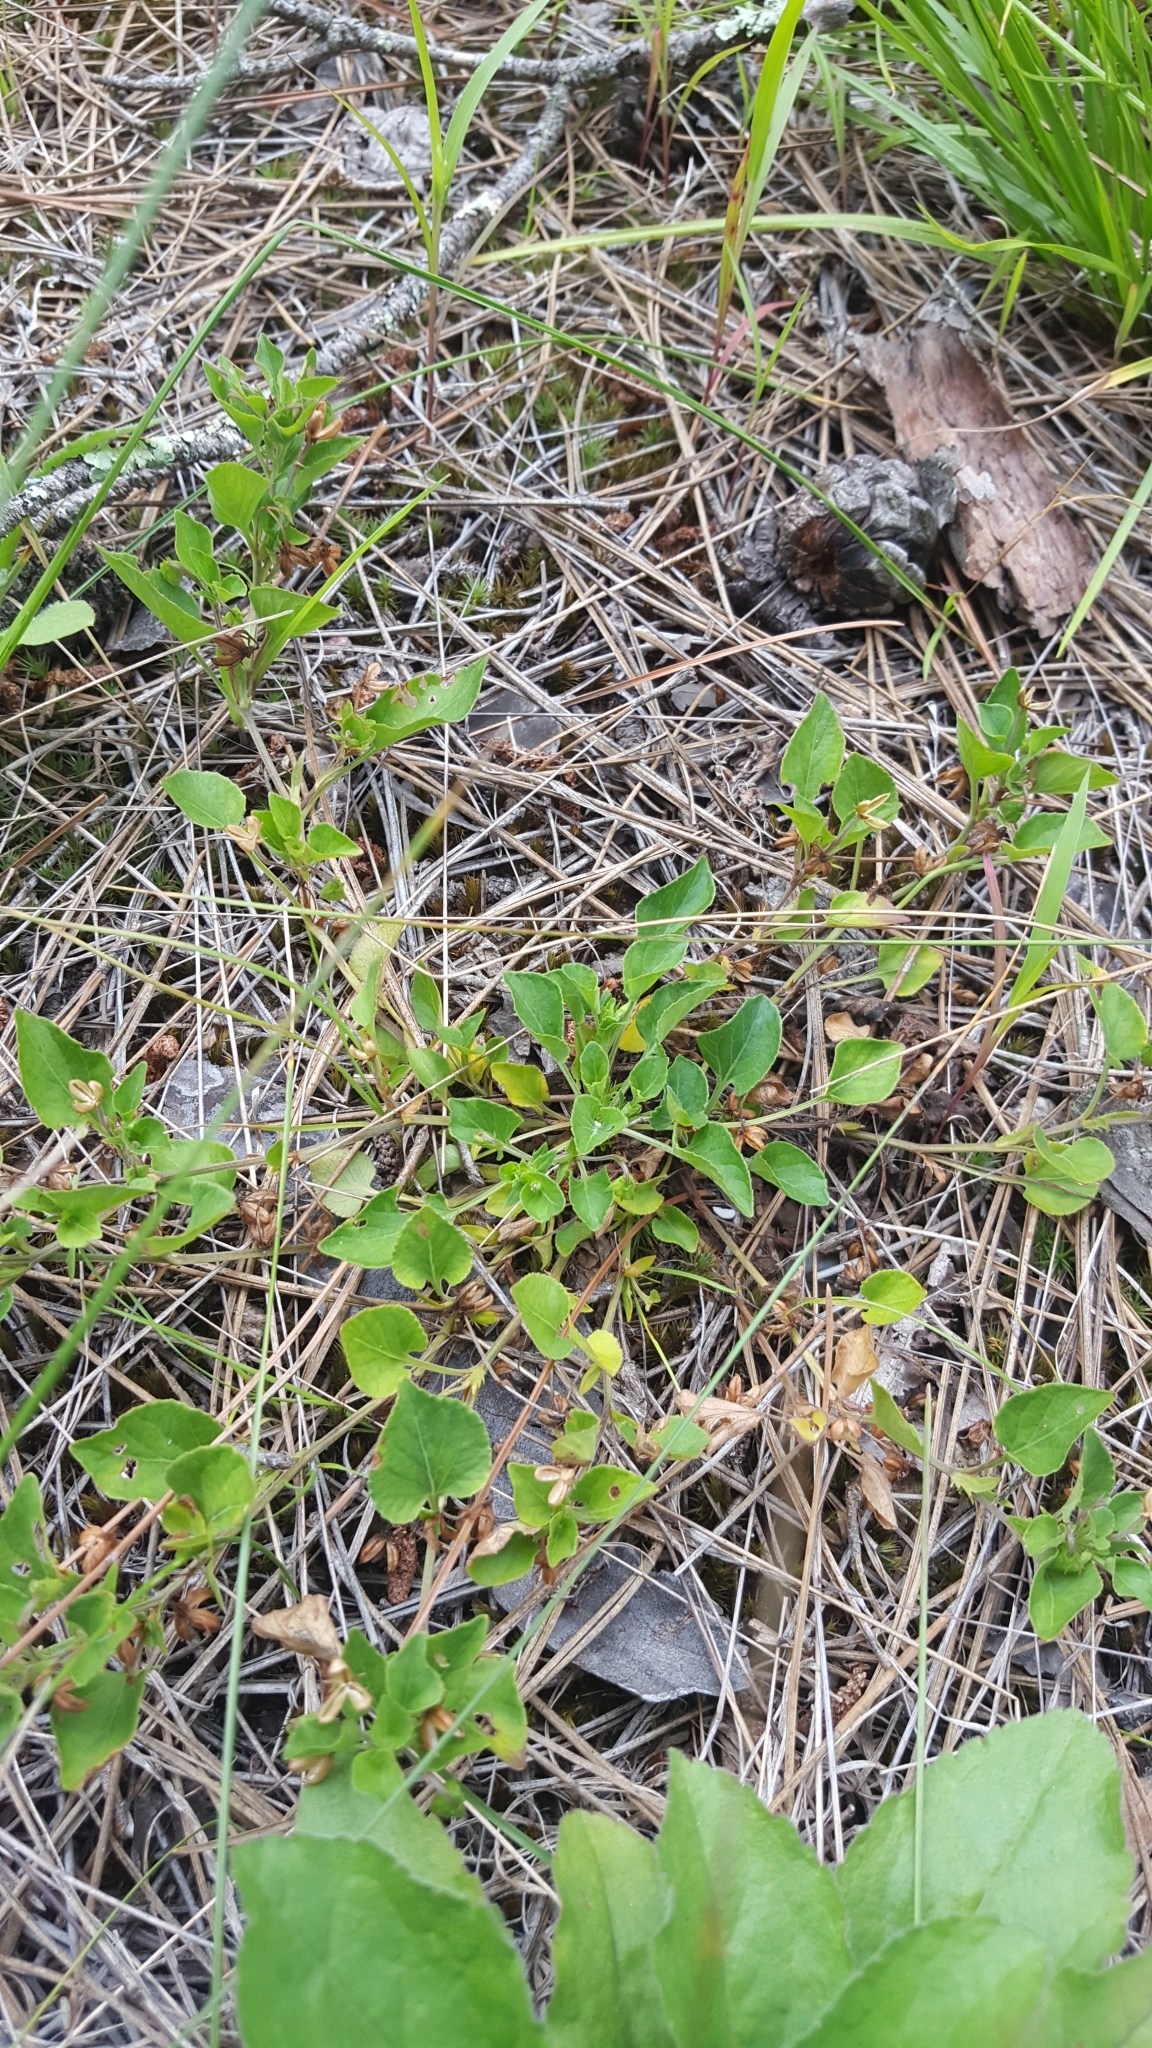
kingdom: Plantae
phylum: Tracheophyta
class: Magnoliopsida
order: Malpighiales
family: Violaceae
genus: Viola
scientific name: Viola adunca
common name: Sand violet
